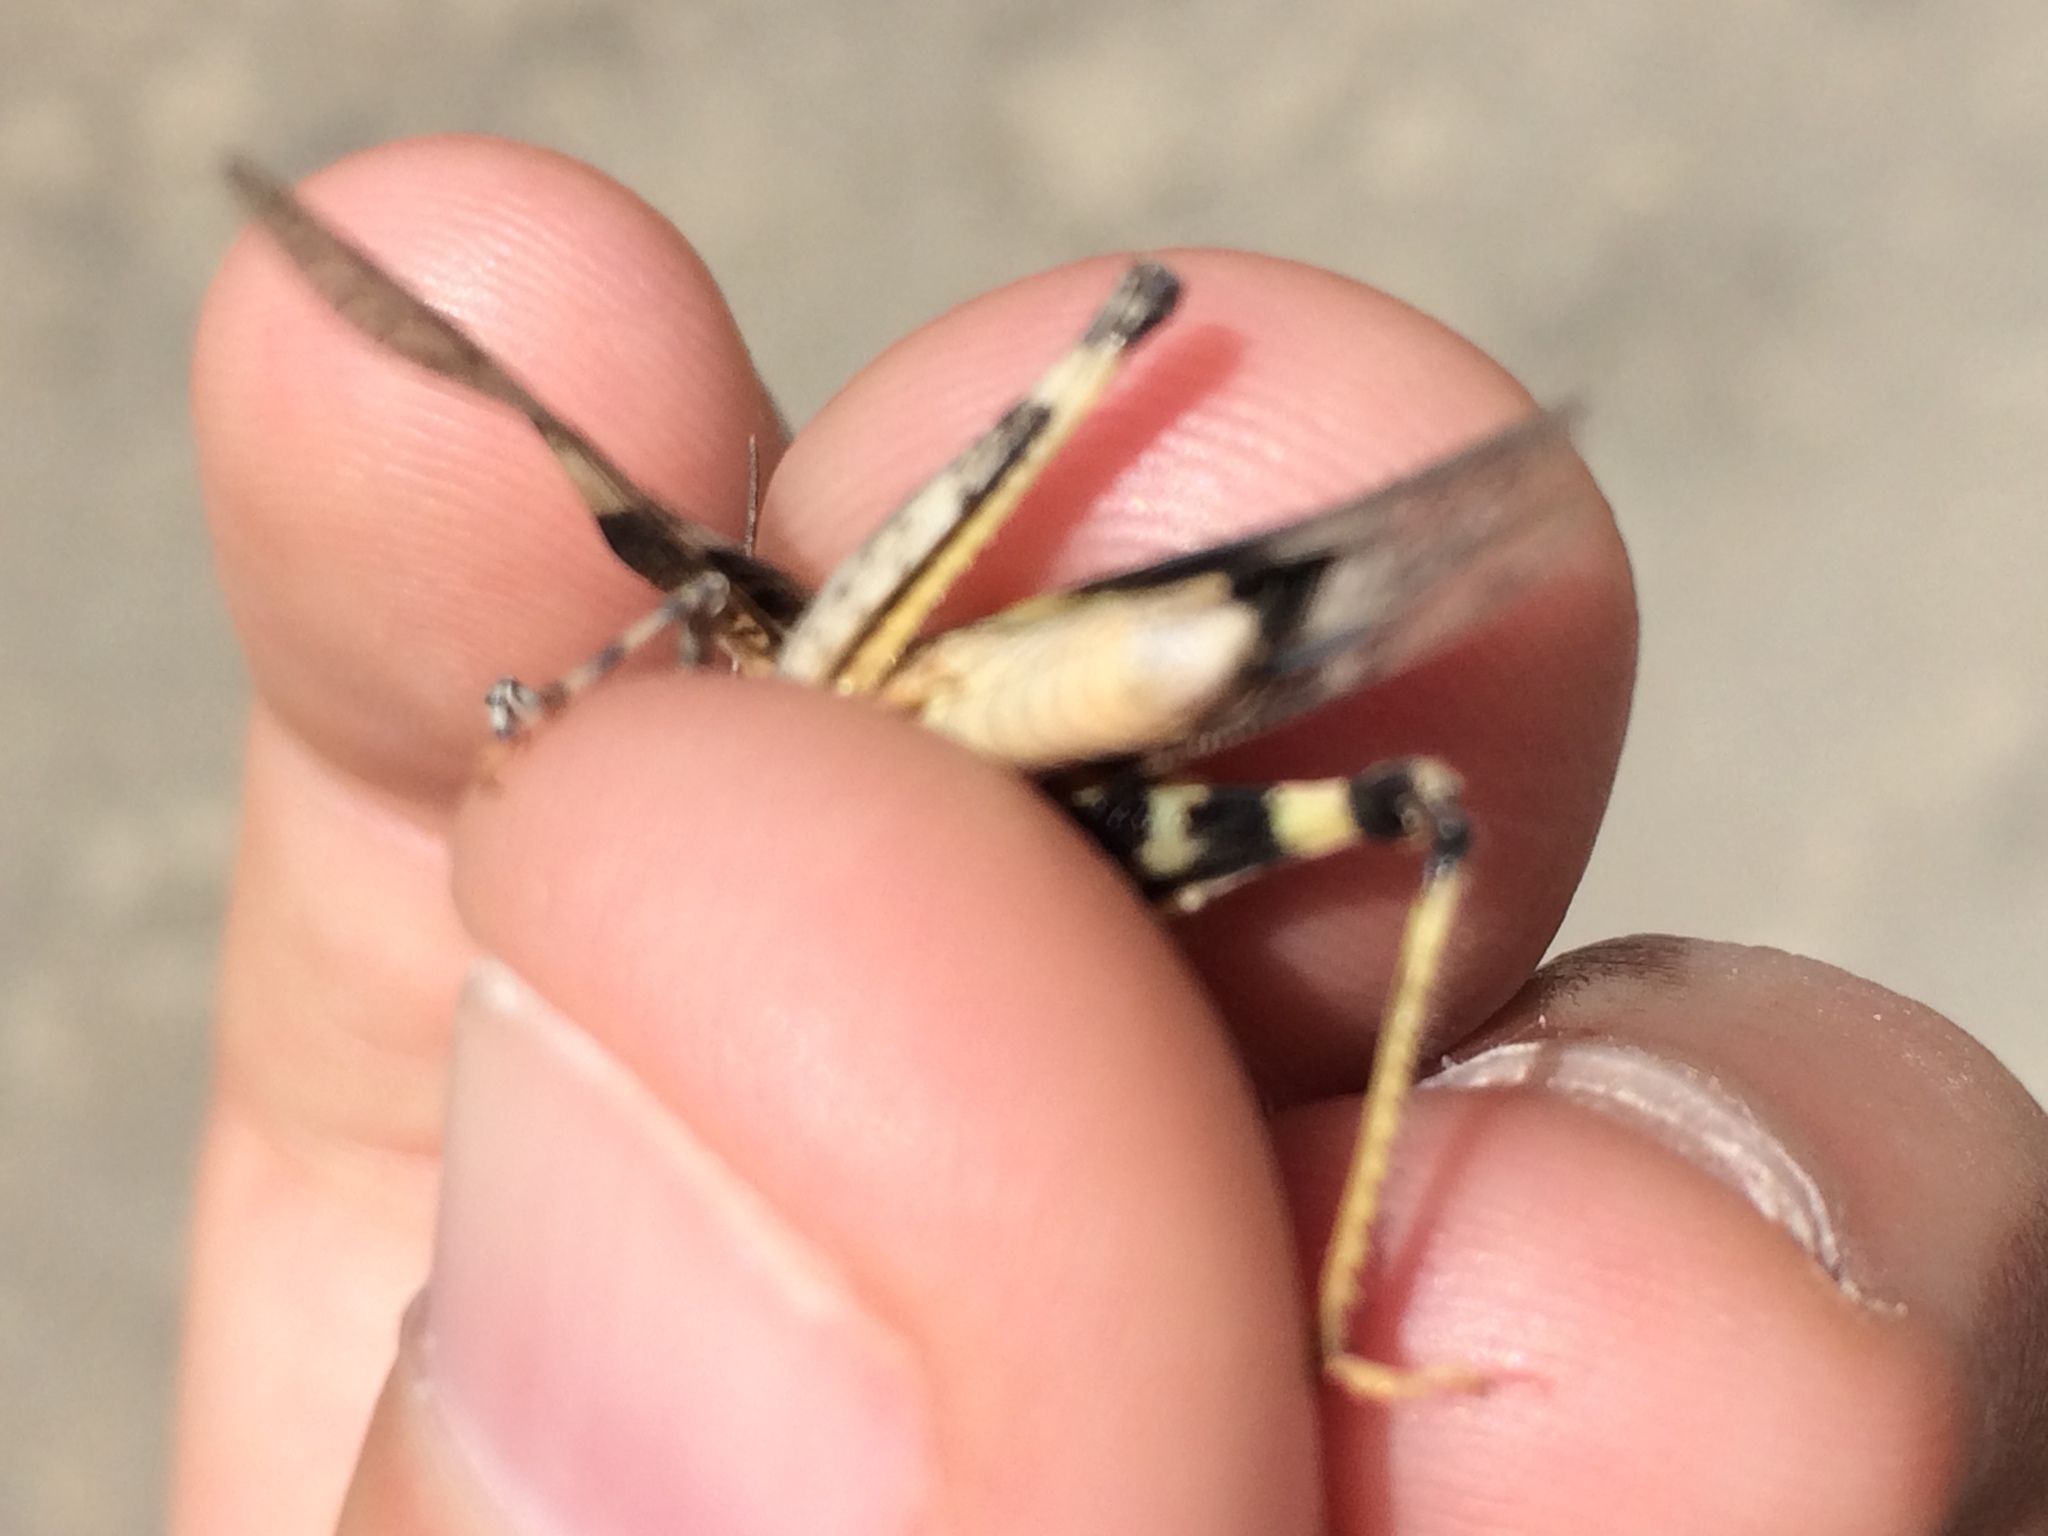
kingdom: Animalia
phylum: Arthropoda
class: Insecta
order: Orthoptera
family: Acrididae
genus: Trimerotropis
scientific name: Trimerotropis pallidipennis
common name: Pallid-winged grasshopper
